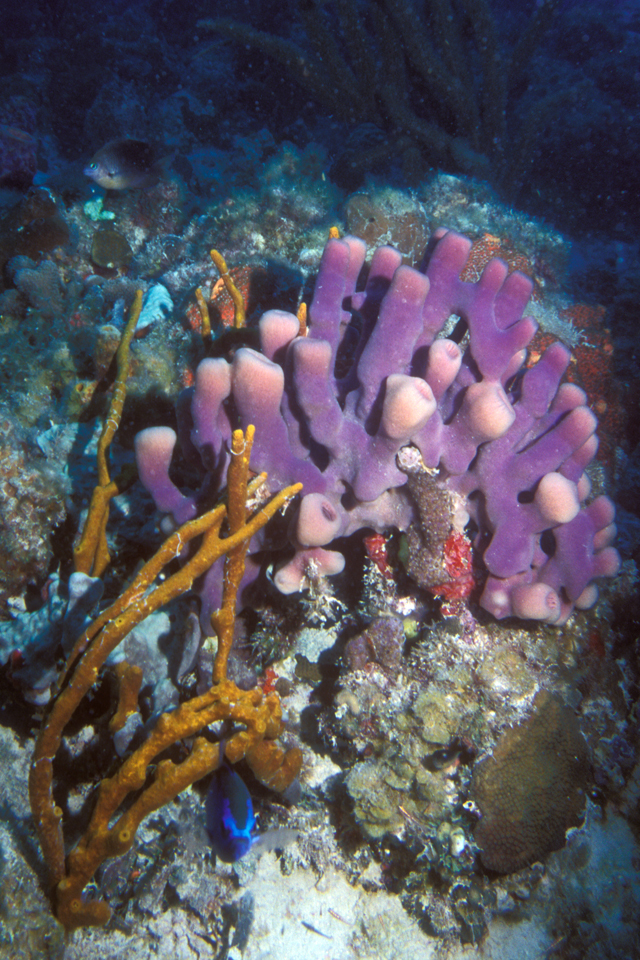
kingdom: Animalia
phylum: Porifera
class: Demospongiae
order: Haplosclerida
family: Callyspongiidae
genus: Callyspongia
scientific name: Callyspongia fallax
